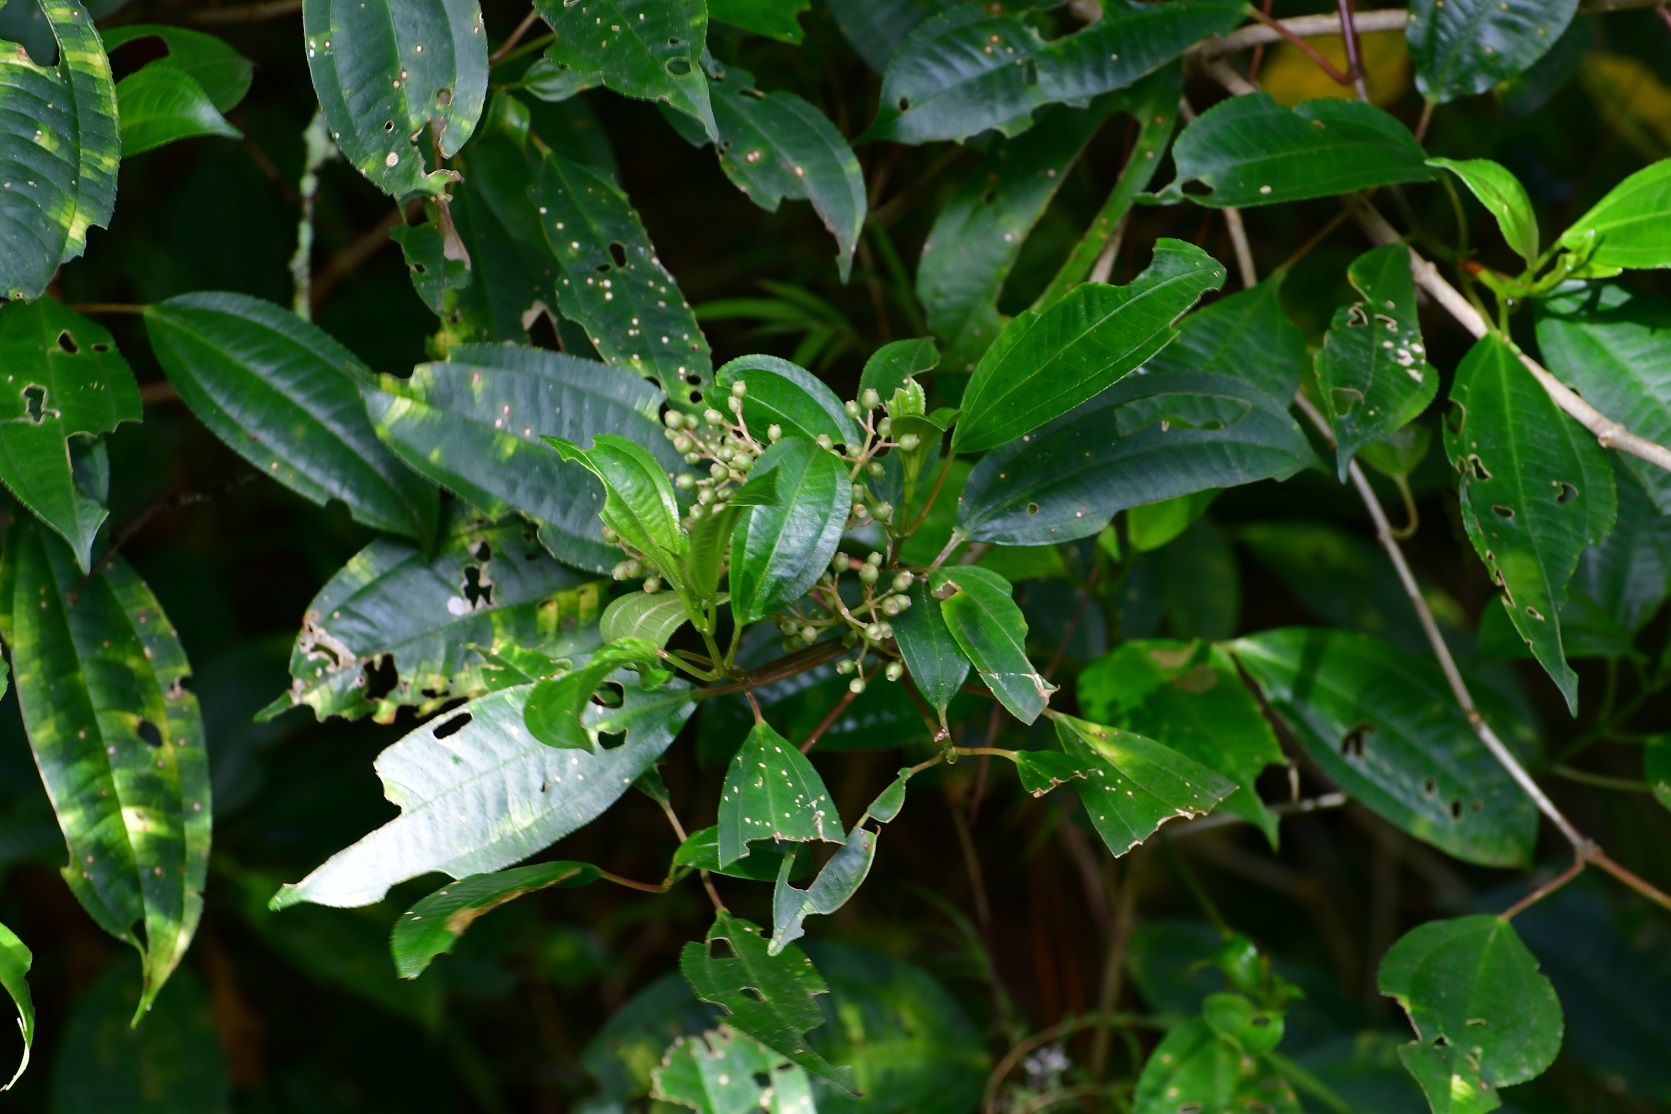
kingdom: Plantae
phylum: Tracheophyta
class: Magnoliopsida
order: Myrtales
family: Melastomataceae
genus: Miconia
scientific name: Miconia glaberrima
